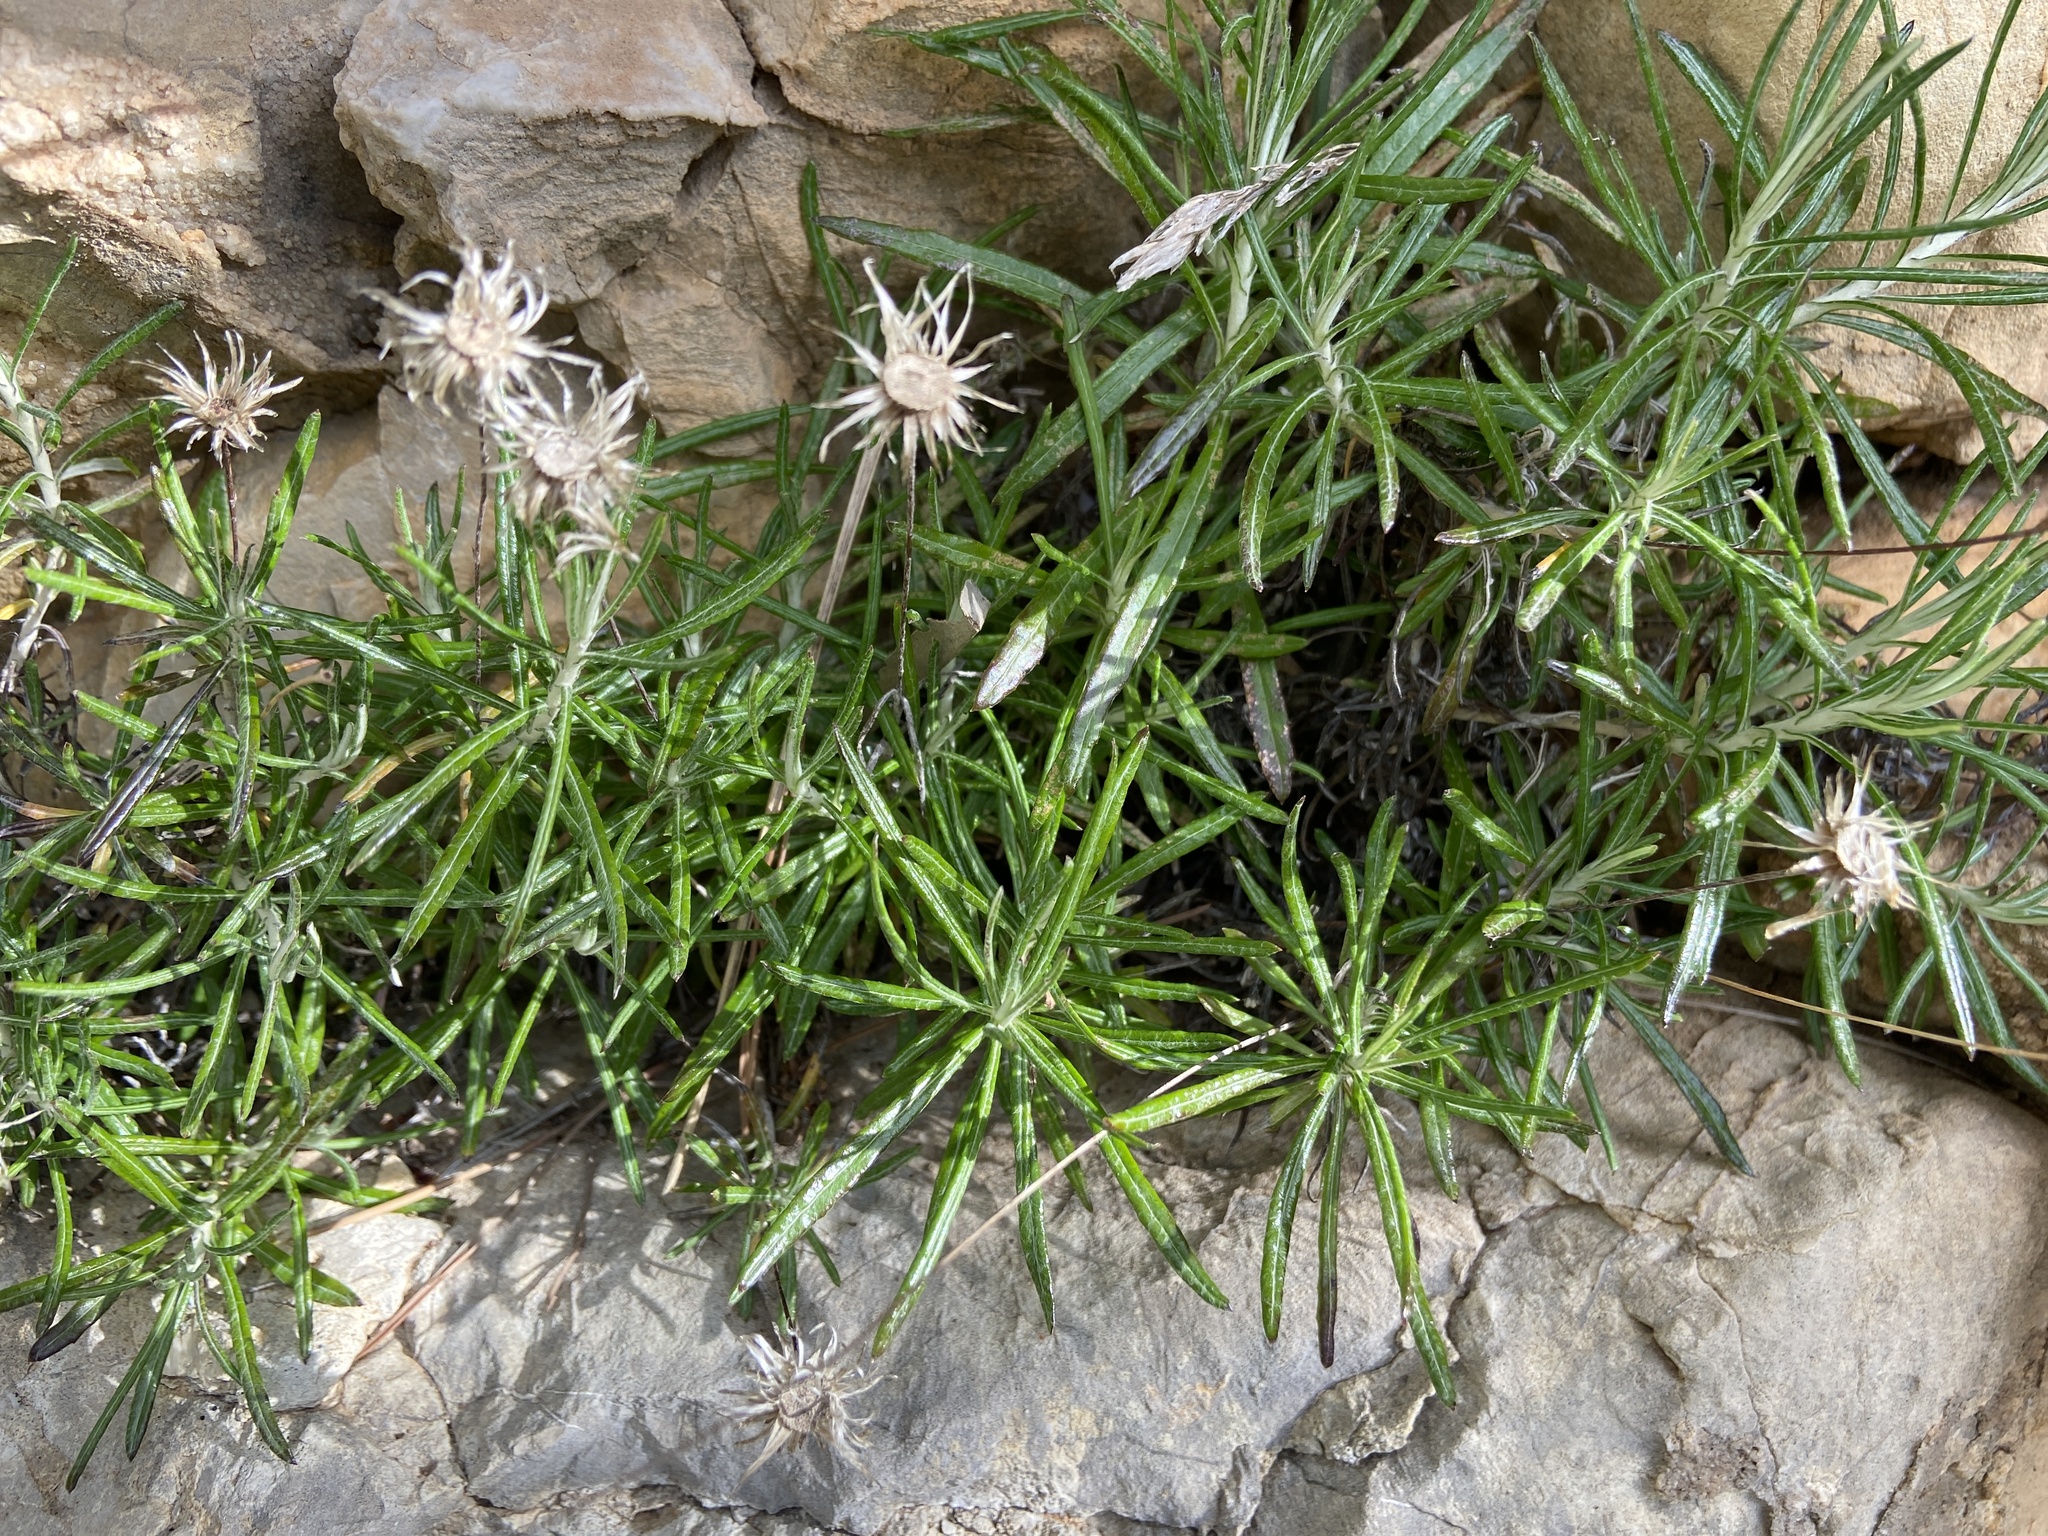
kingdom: Plantae
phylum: Tracheophyta
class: Magnoliopsida
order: Asterales
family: Asteraceae
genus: Phagnalon
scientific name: Phagnalon saxatile
